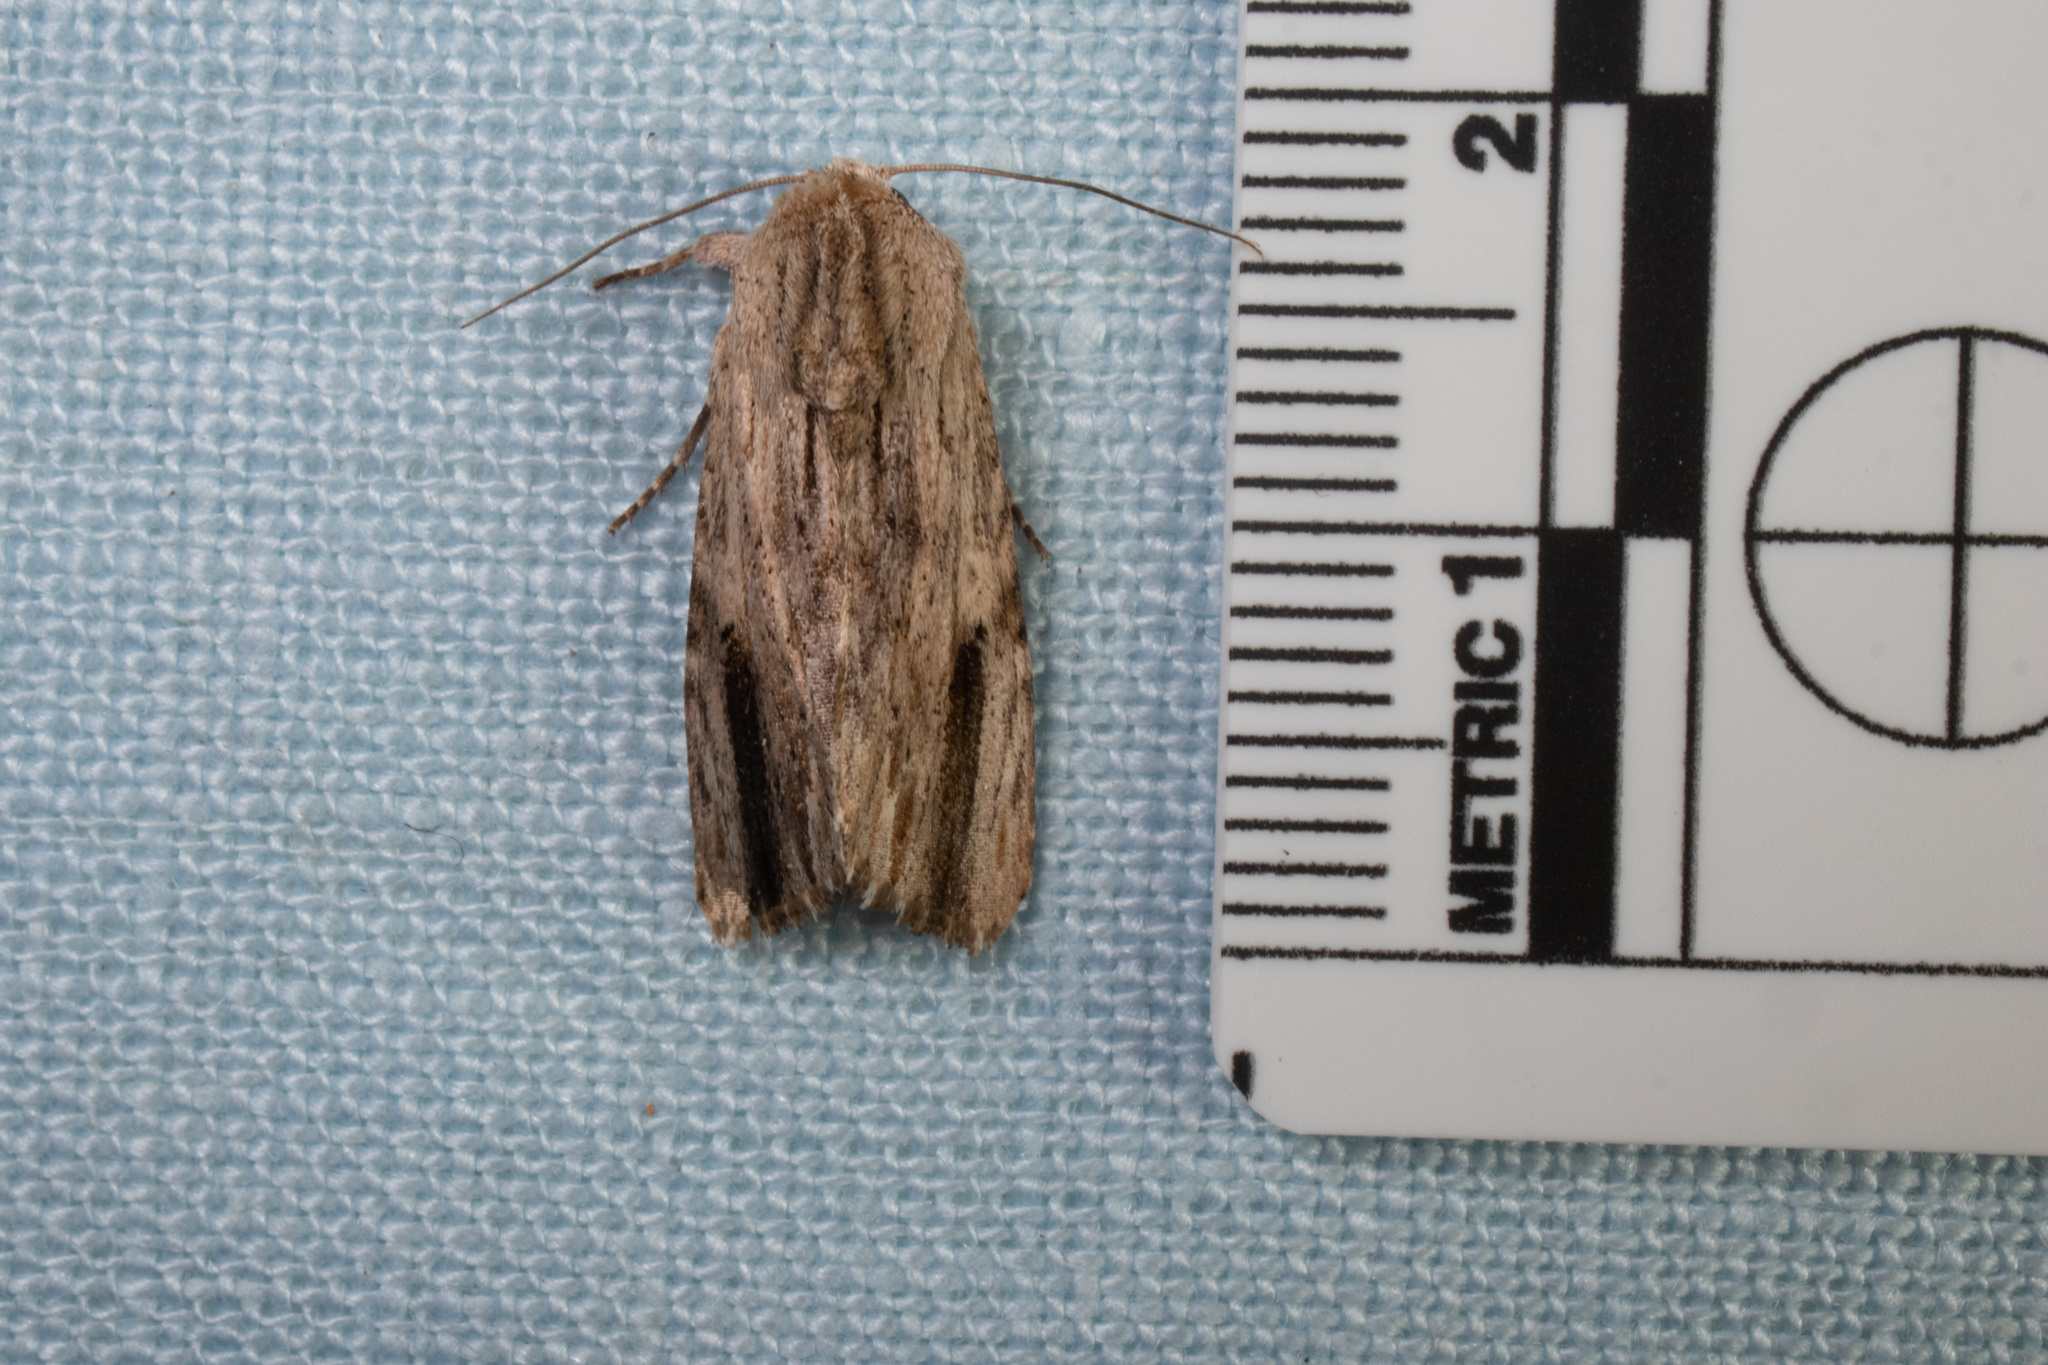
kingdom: Animalia
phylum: Arthropoda
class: Insecta
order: Lepidoptera
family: Noctuidae
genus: Spodoptera
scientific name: Spodoptera eridania
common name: Southern army worm
